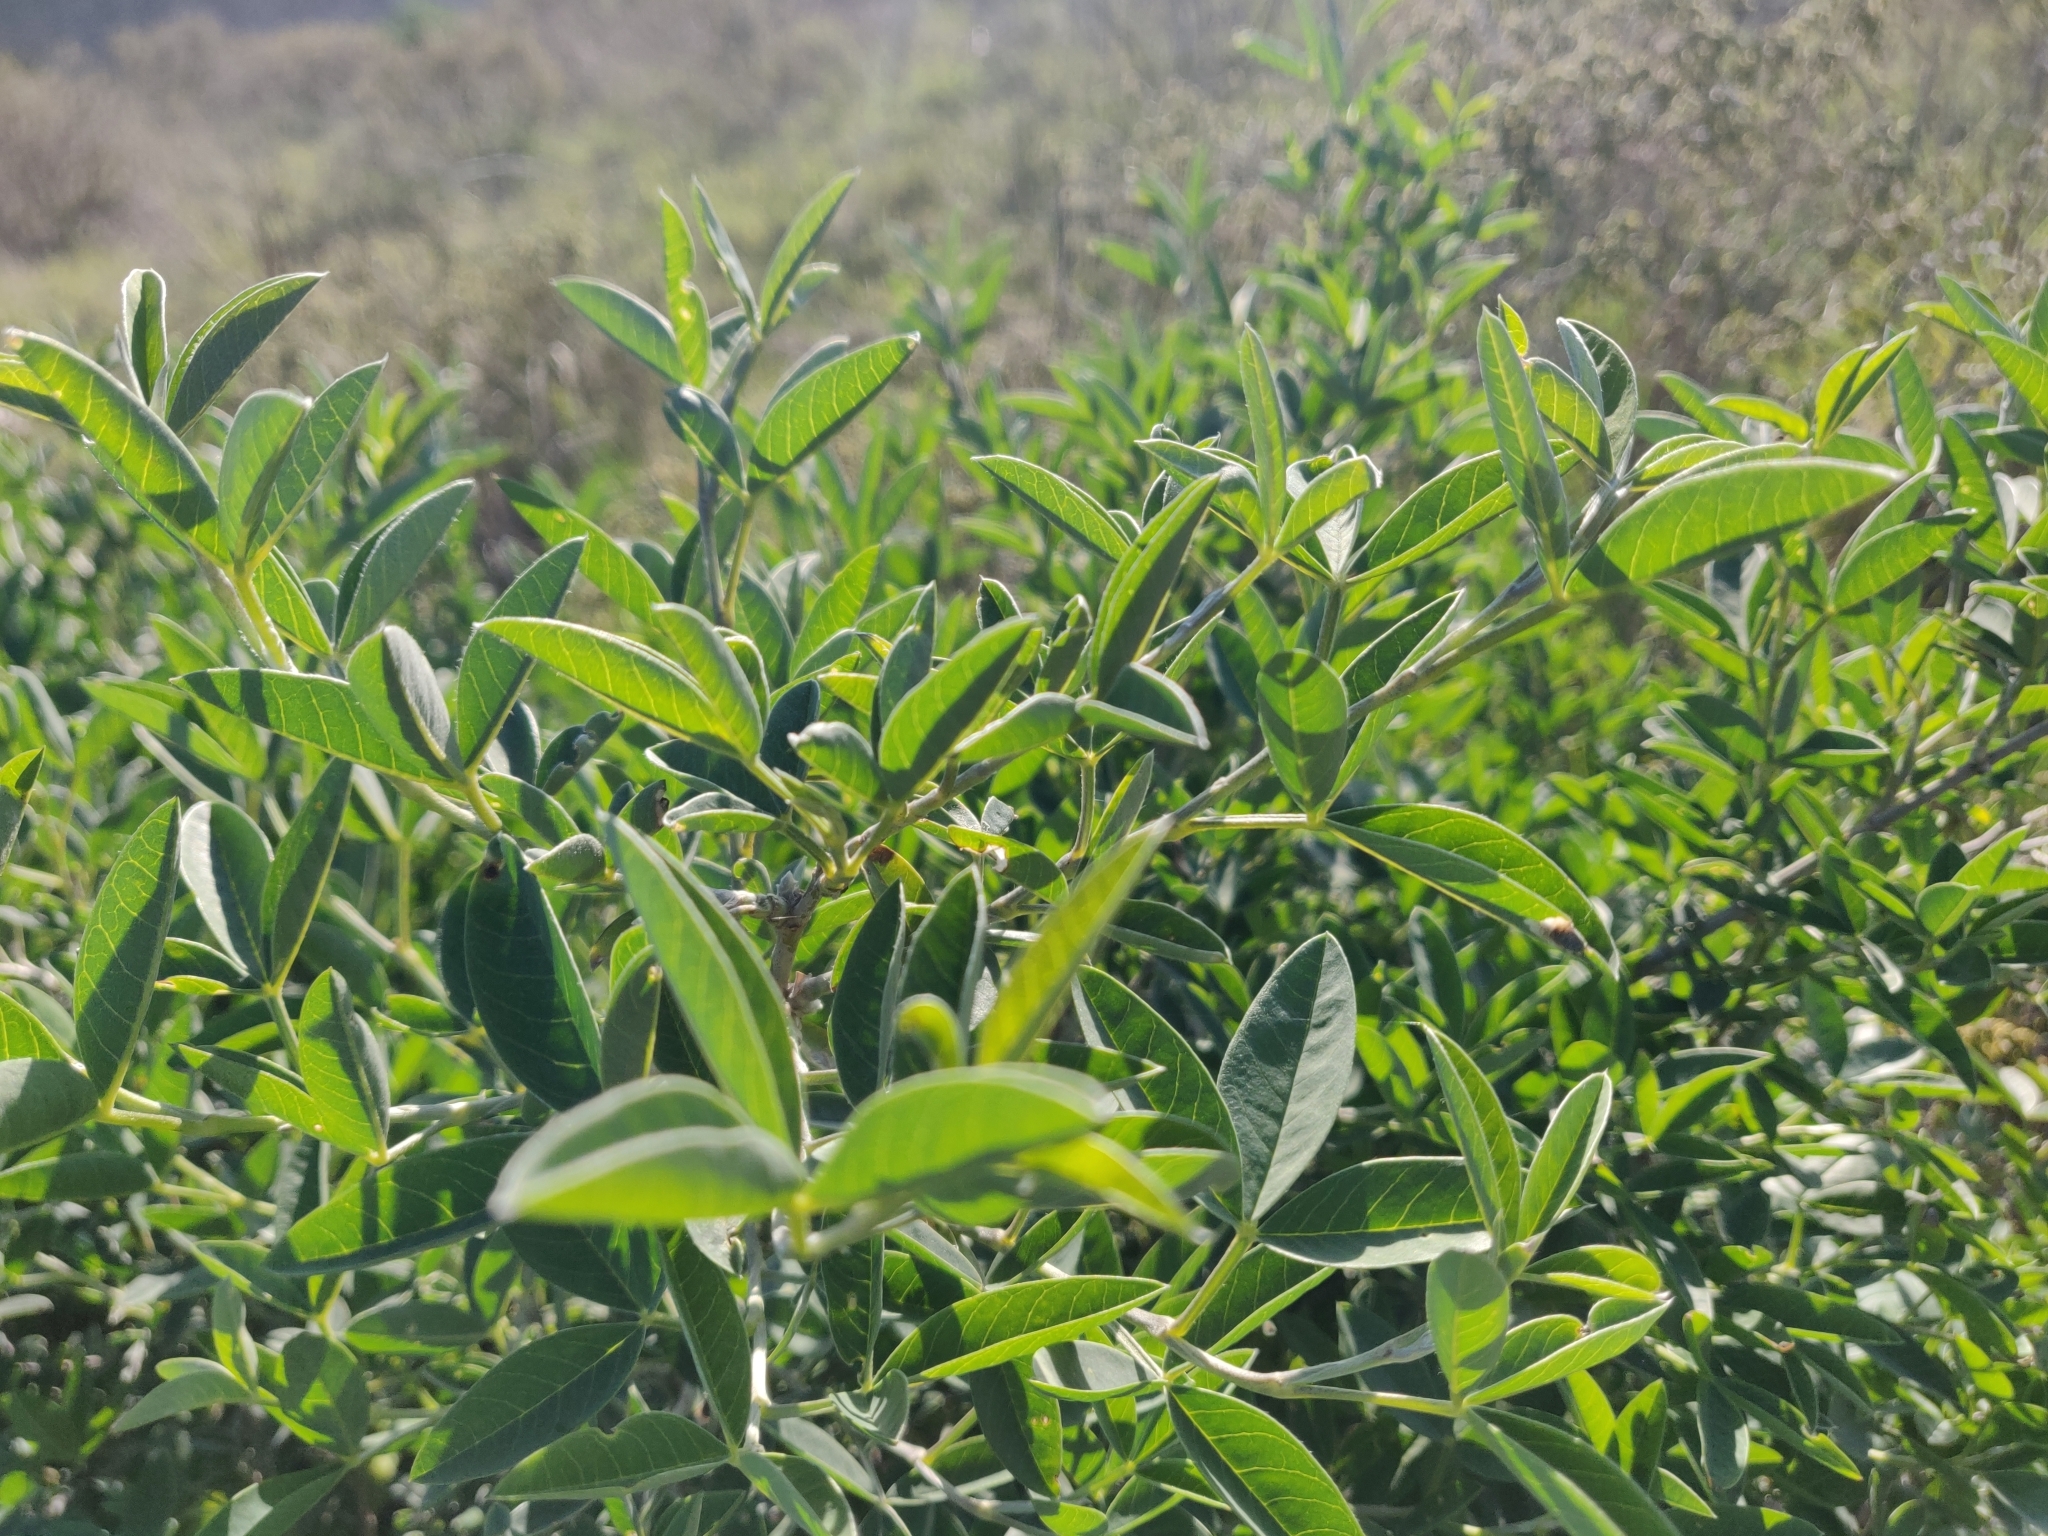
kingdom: Plantae
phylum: Tracheophyta
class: Magnoliopsida
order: Fabales
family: Fabaceae
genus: Anagyris
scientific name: Anagyris foetida
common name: Stinking bean trefoil
